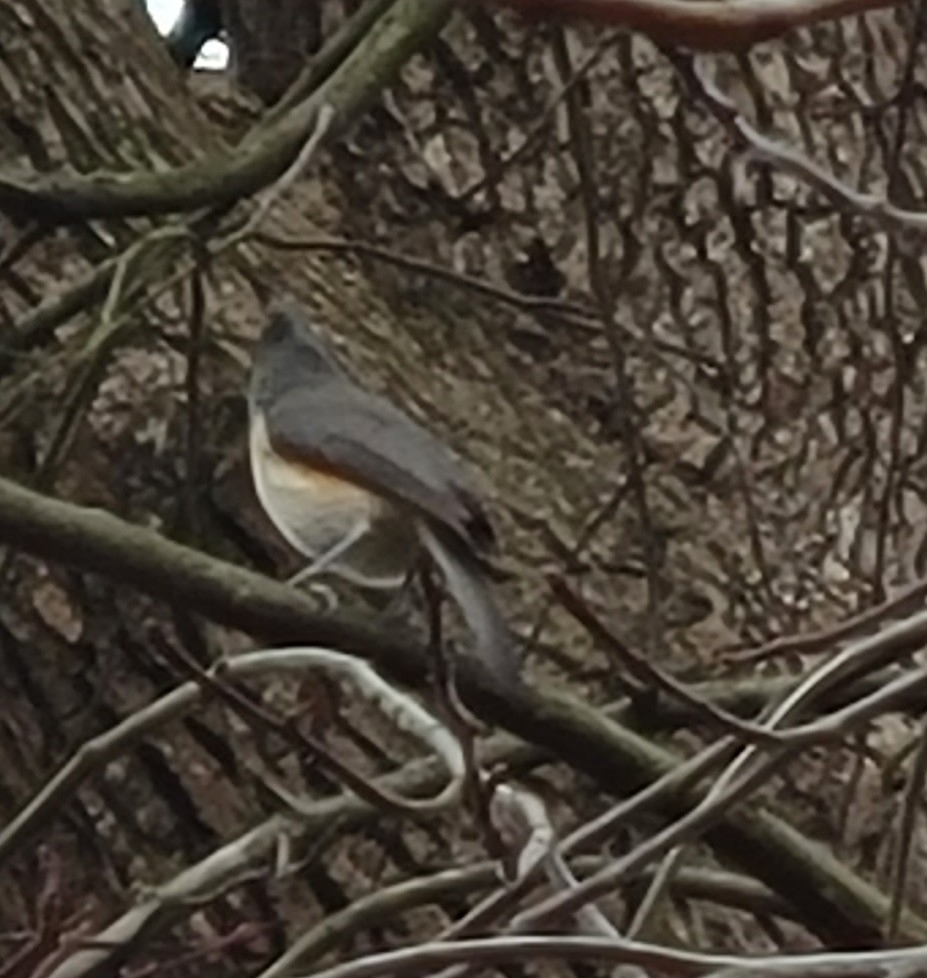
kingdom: Animalia
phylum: Chordata
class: Aves
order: Passeriformes
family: Paridae
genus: Baeolophus
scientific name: Baeolophus bicolor
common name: Tufted titmouse
